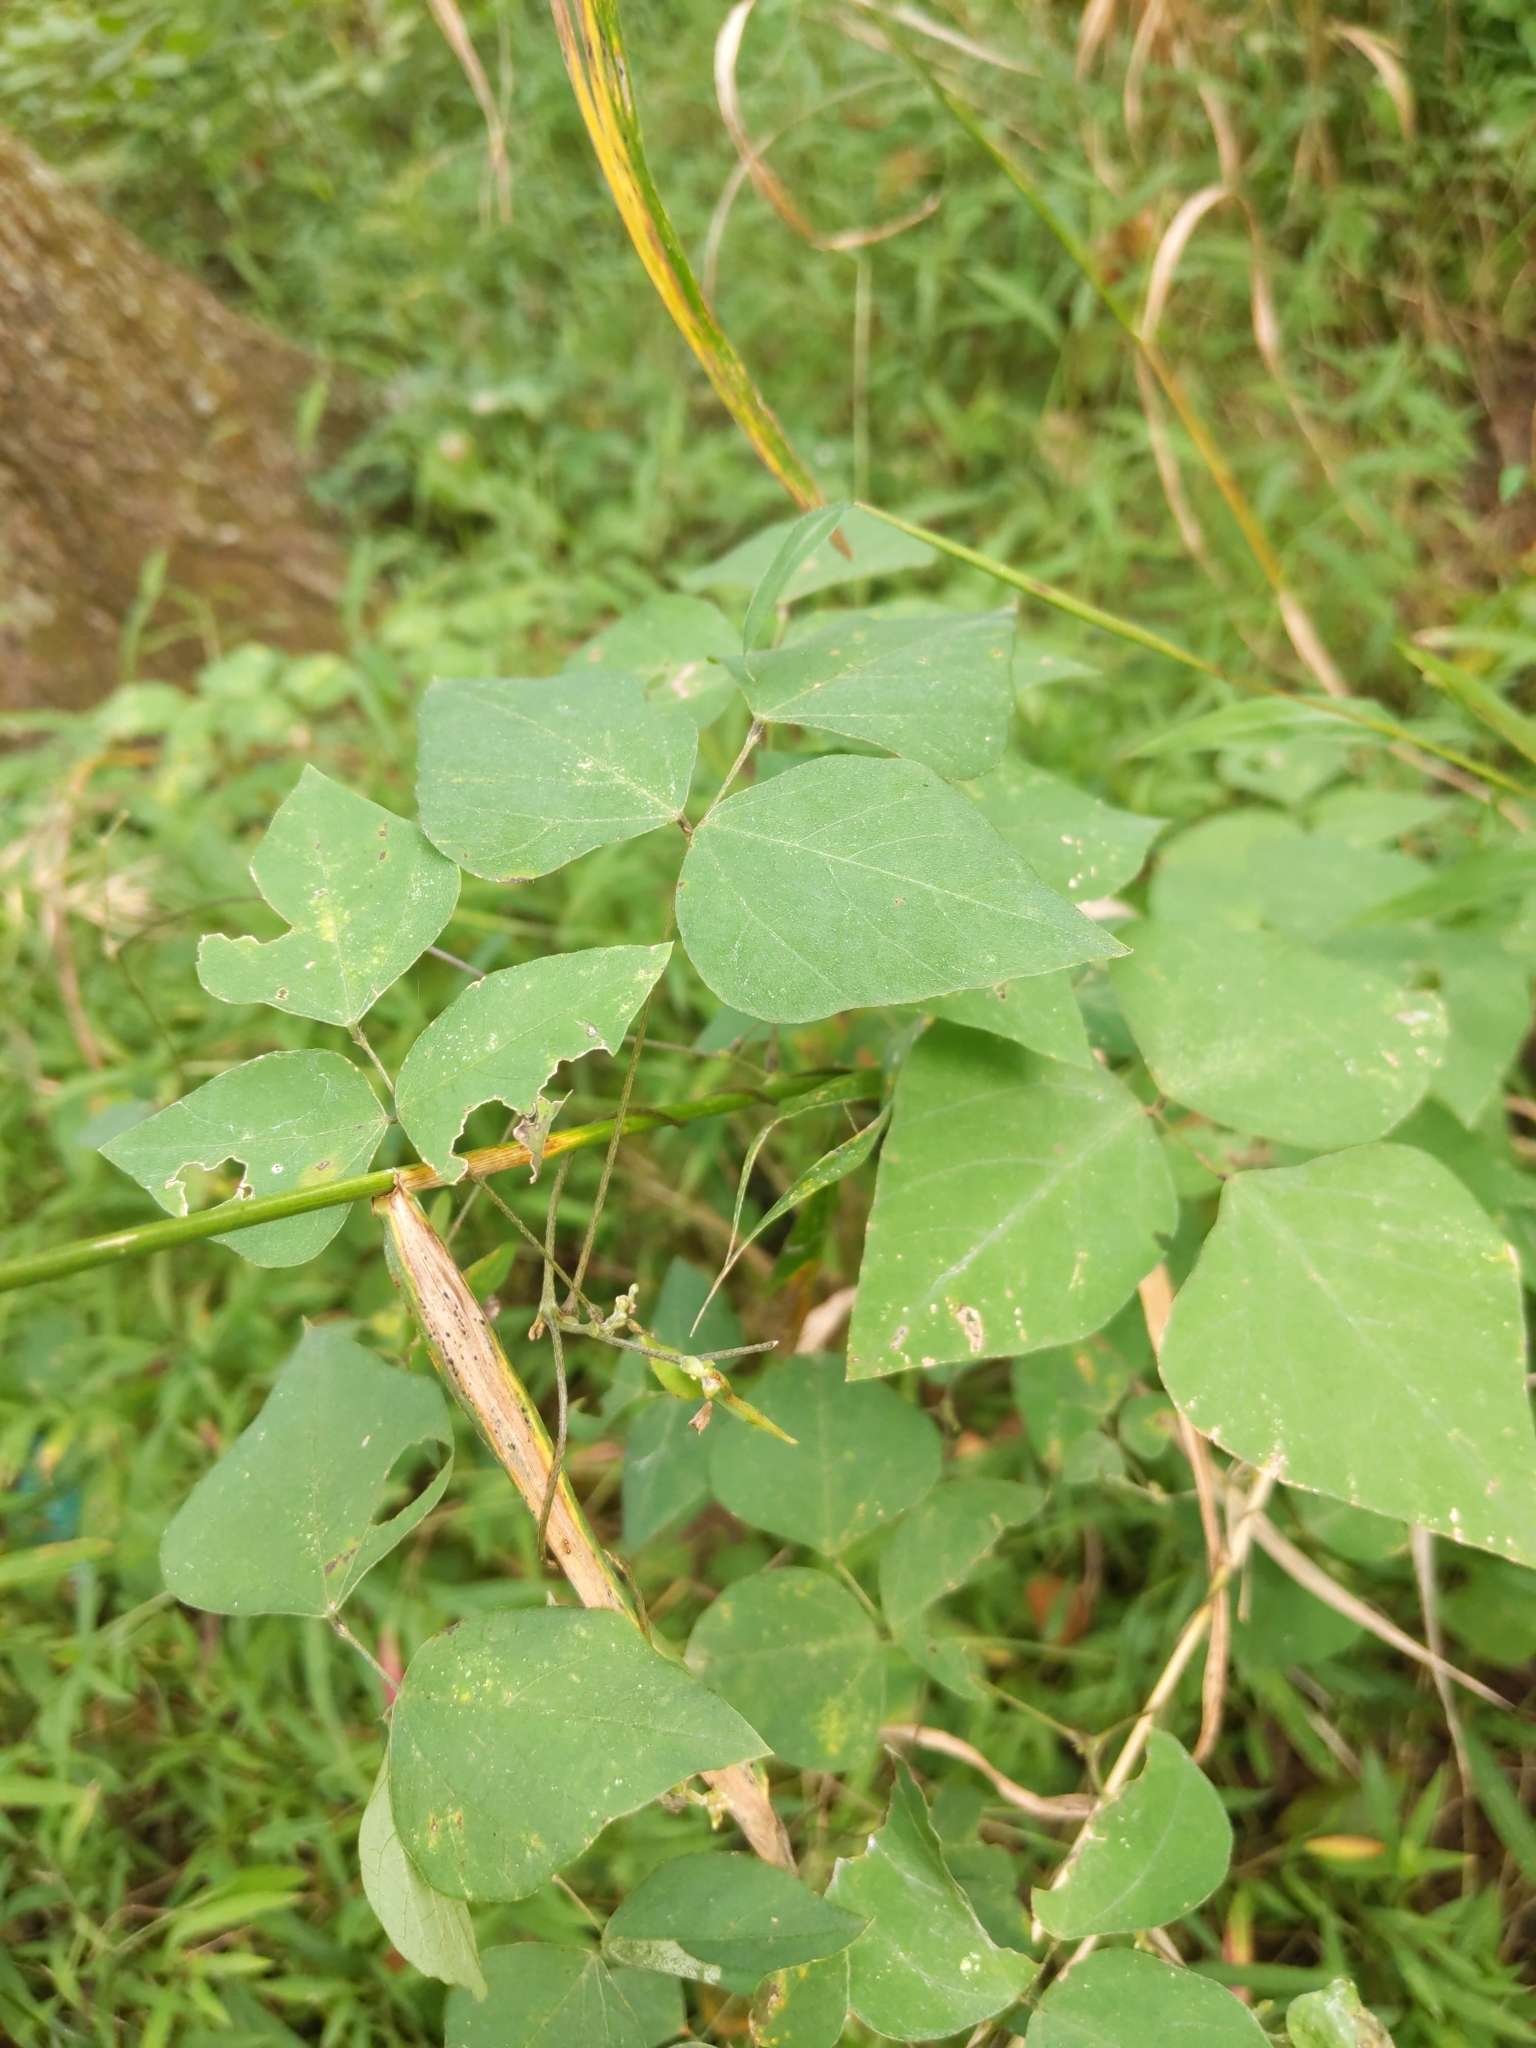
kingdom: Plantae
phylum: Tracheophyta
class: Magnoliopsida
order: Fabales
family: Fabaceae
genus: Amphicarpaea
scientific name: Amphicarpaea bracteata
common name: American hog peanut
